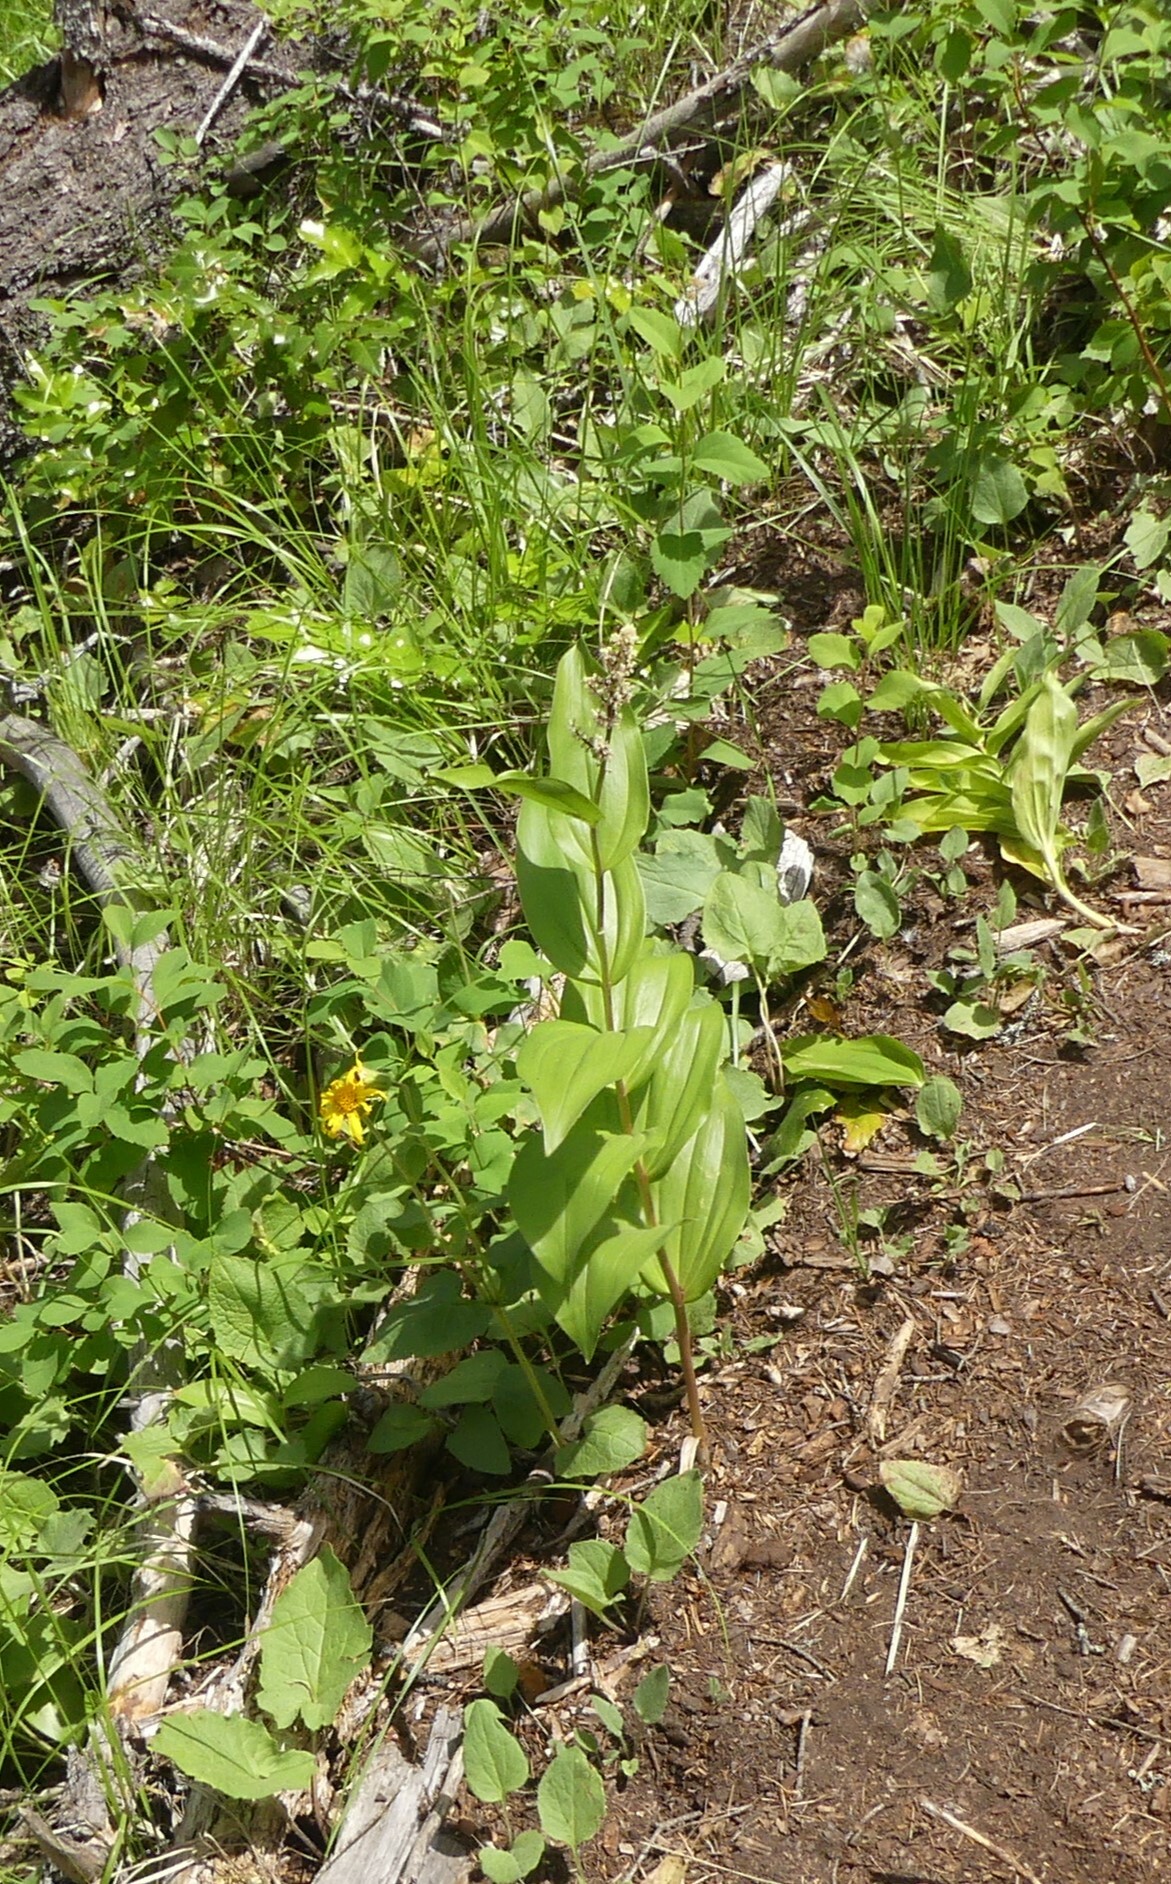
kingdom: Plantae
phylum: Tracheophyta
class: Liliopsida
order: Asparagales
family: Asparagaceae
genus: Maianthemum
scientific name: Maianthemum racemosum
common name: False spikenard
